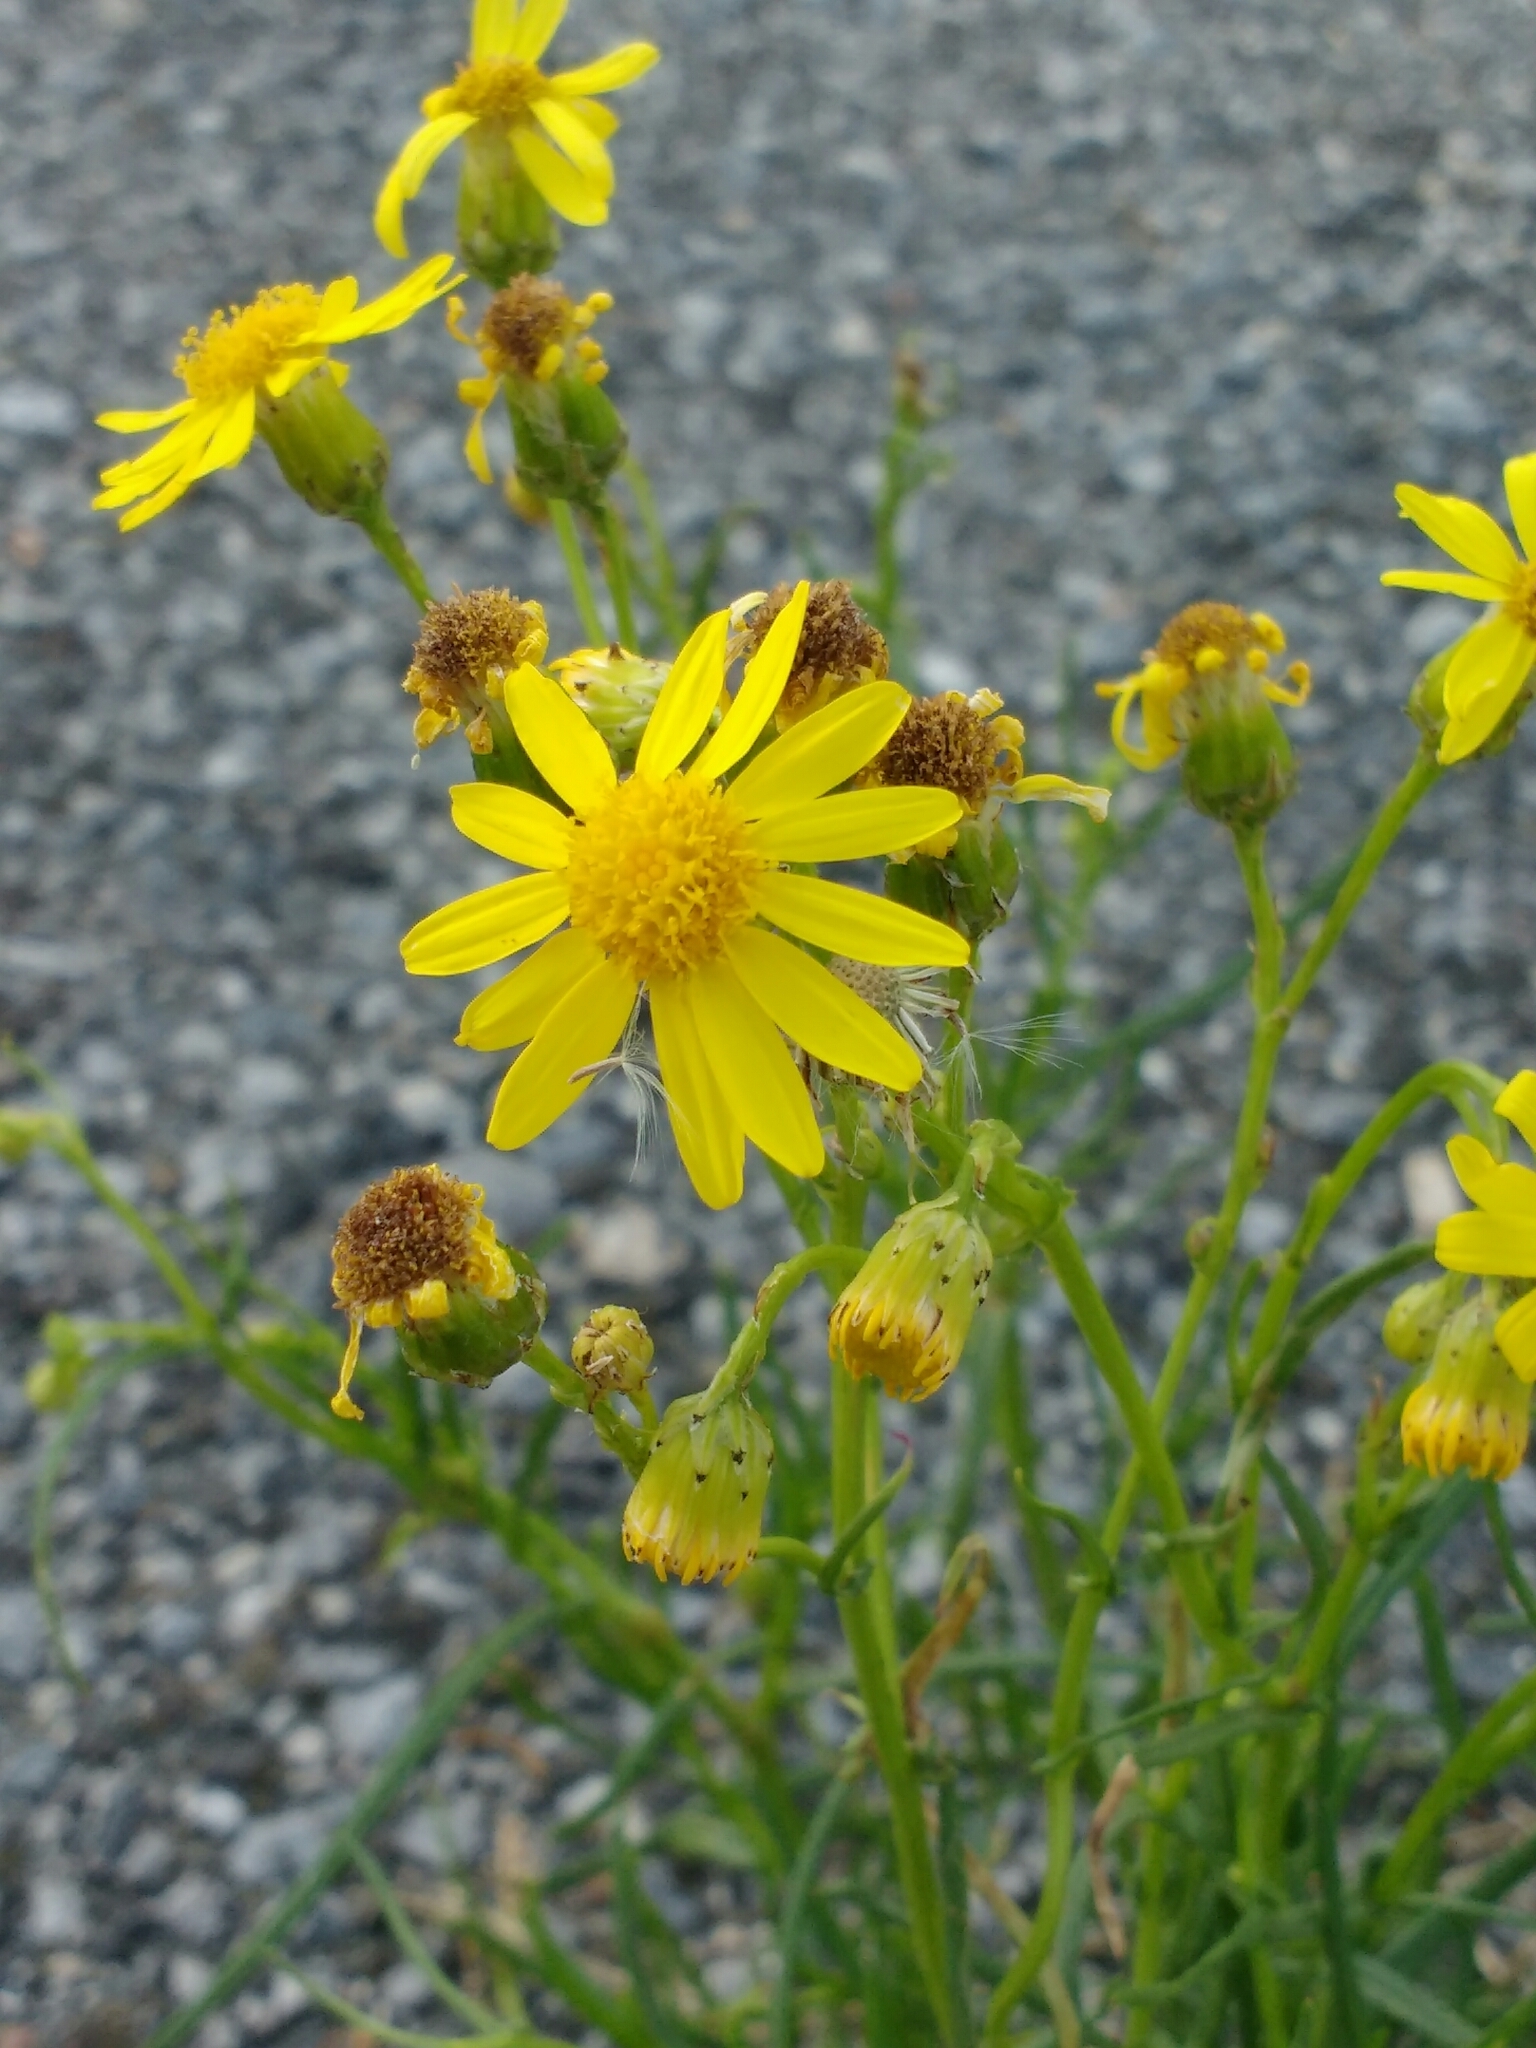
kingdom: Plantae
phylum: Tracheophyta
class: Magnoliopsida
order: Asterales
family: Asteraceae
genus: Senecio
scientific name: Senecio inaequidens
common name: Narrow-leaved ragwort
